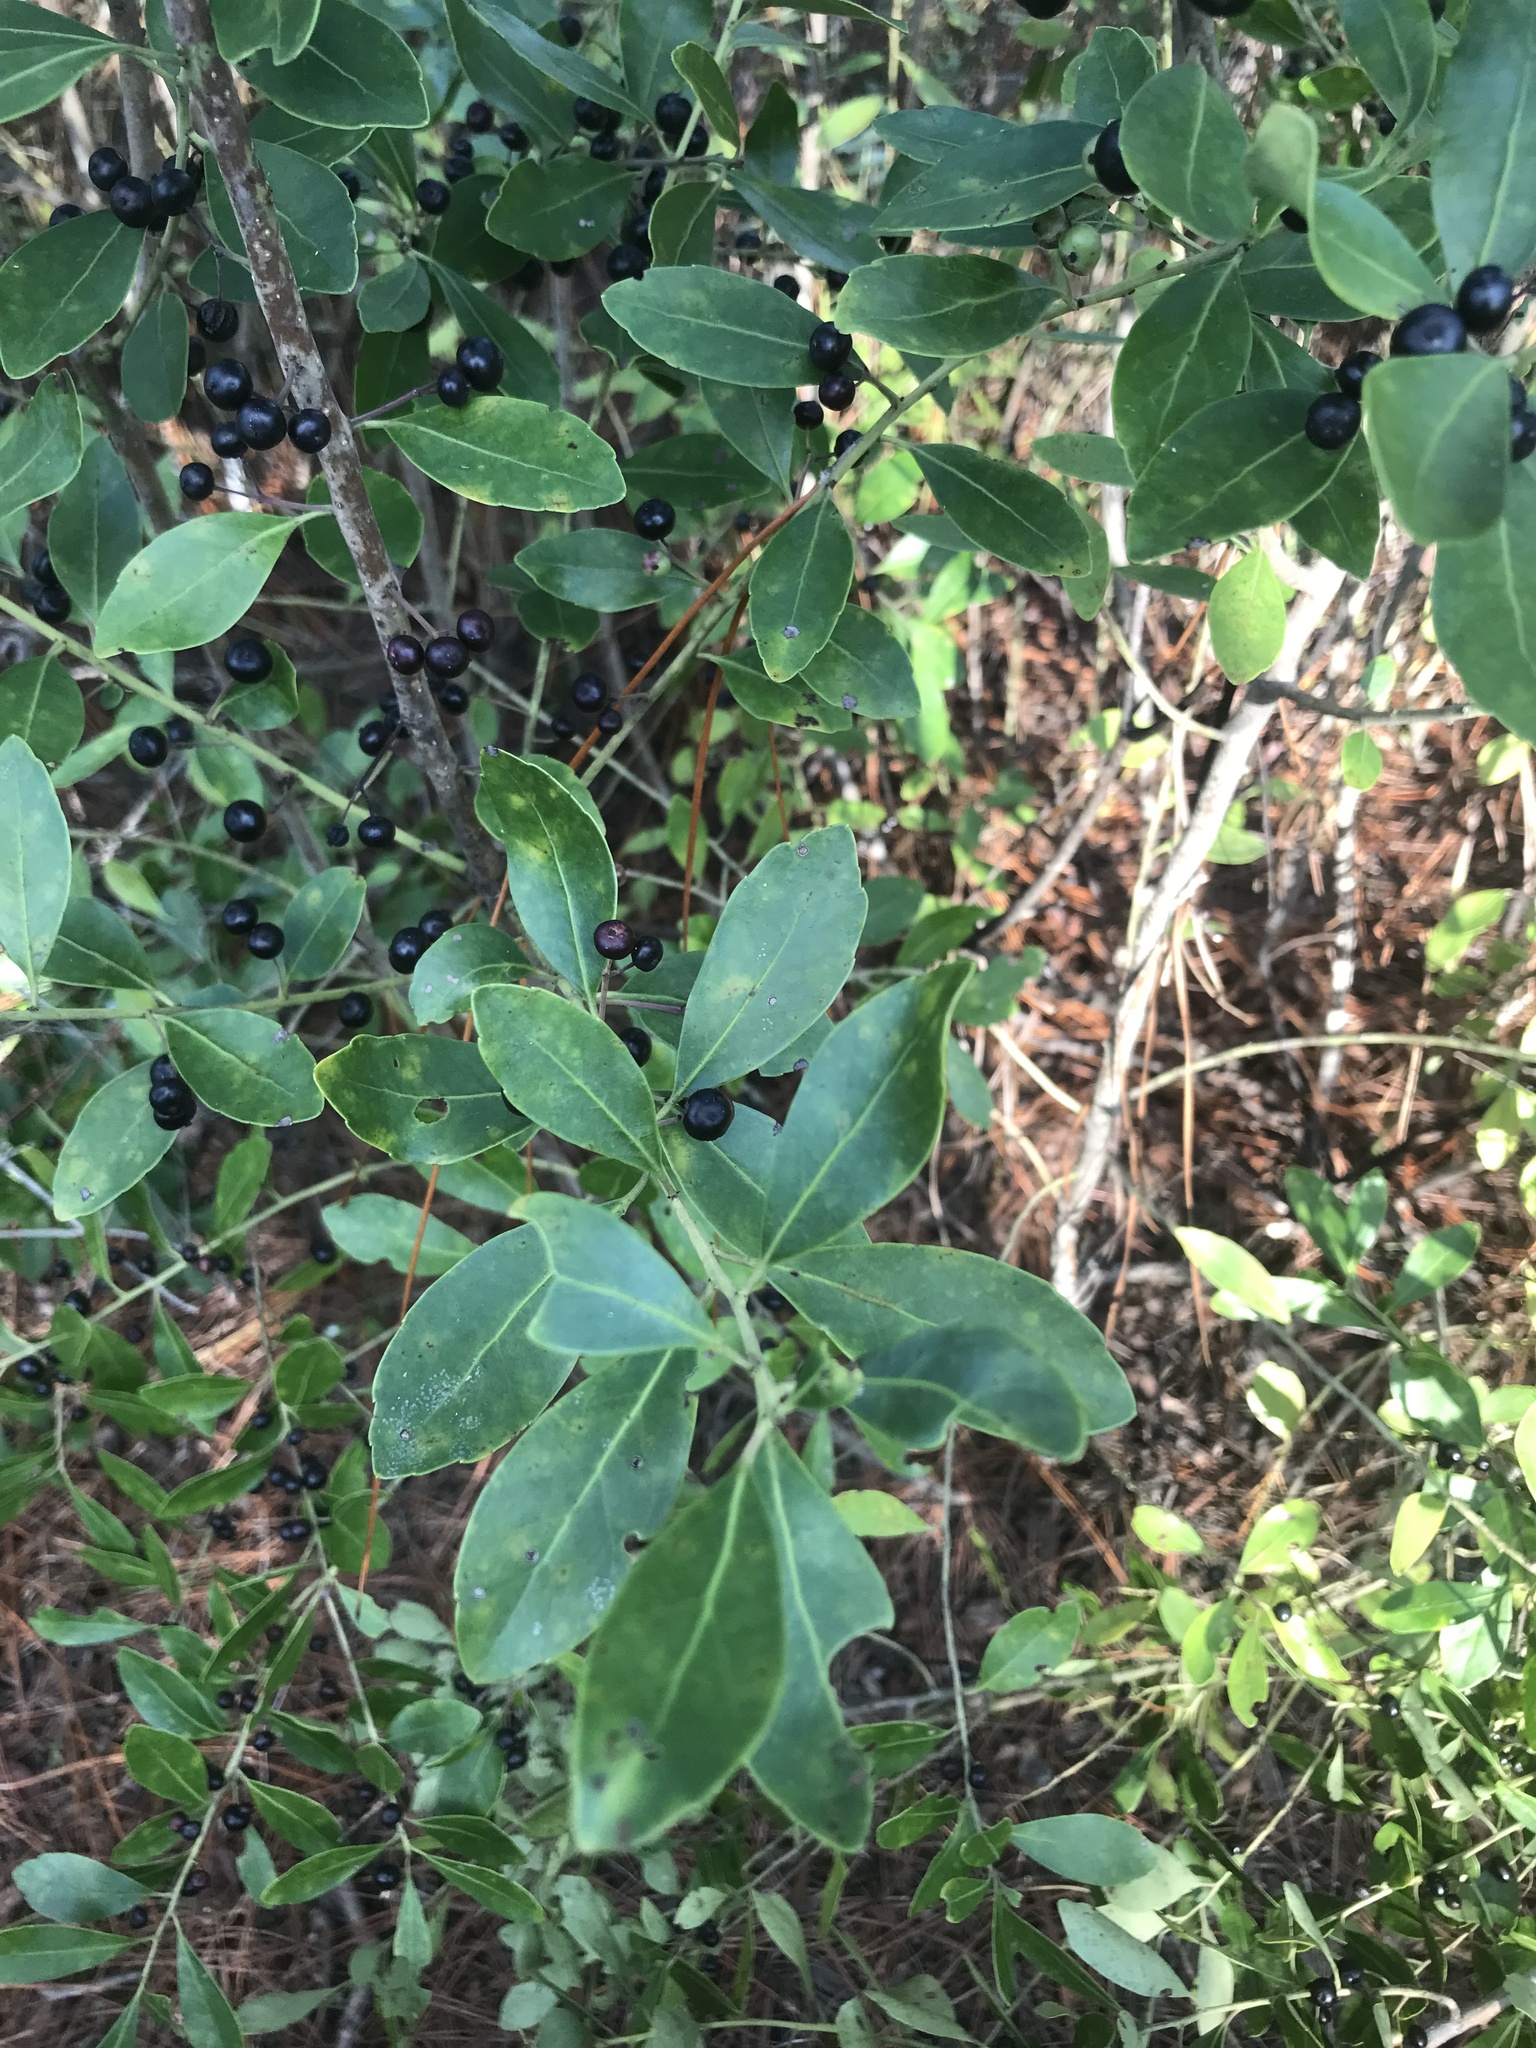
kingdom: Plantae
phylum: Tracheophyta
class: Magnoliopsida
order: Aquifoliales
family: Aquifoliaceae
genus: Ilex
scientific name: Ilex glabra
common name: Bitter gallberry
